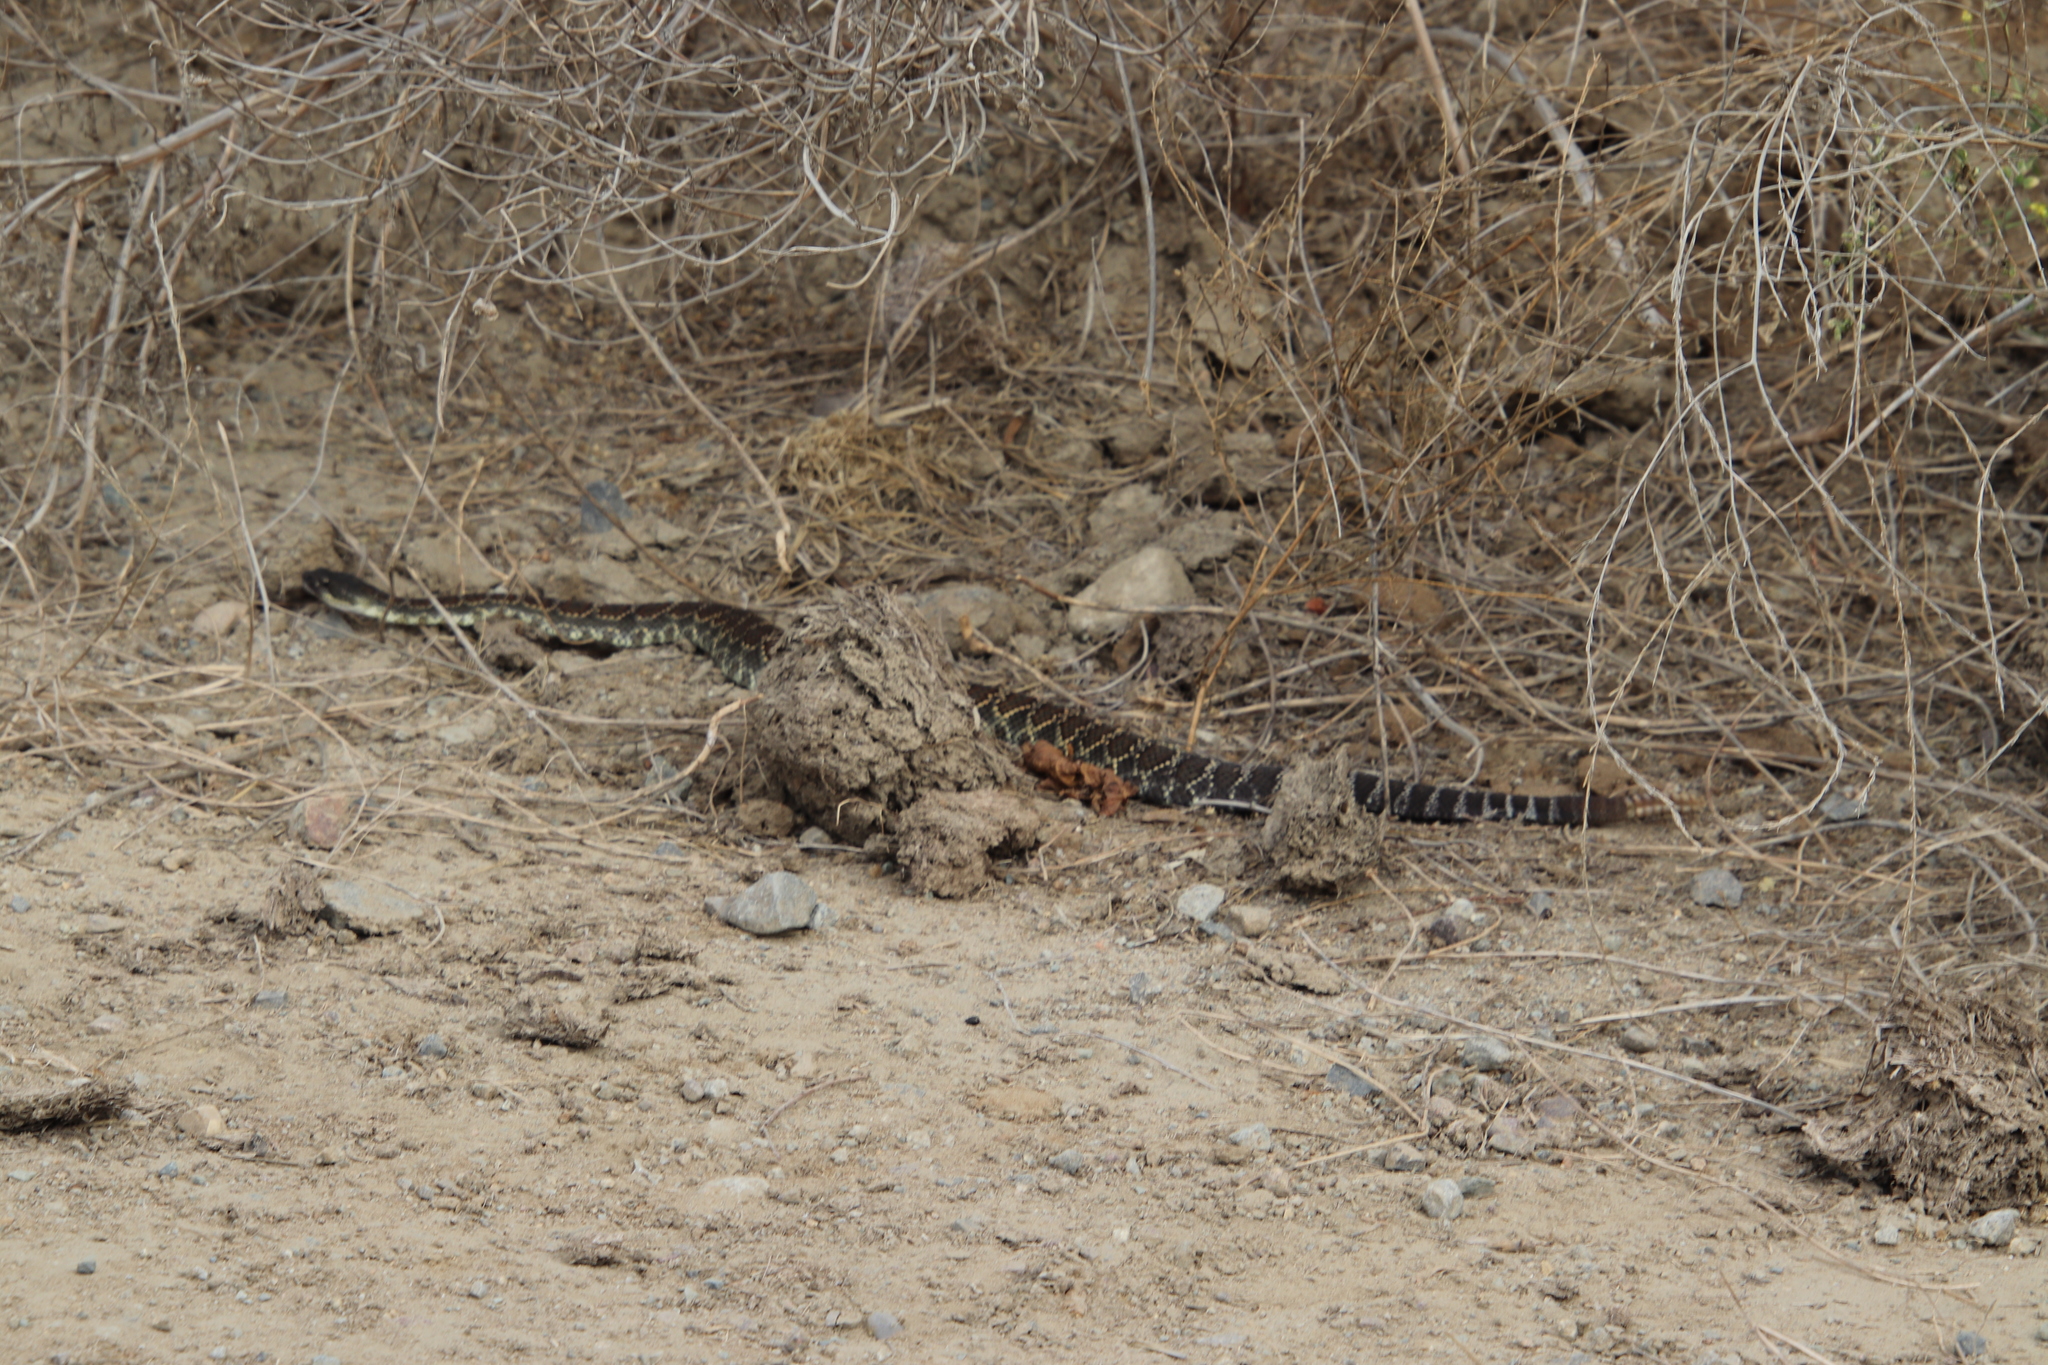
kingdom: Animalia
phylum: Chordata
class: Squamata
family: Viperidae
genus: Crotalus
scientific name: Crotalus oreganus
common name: Abyssus
